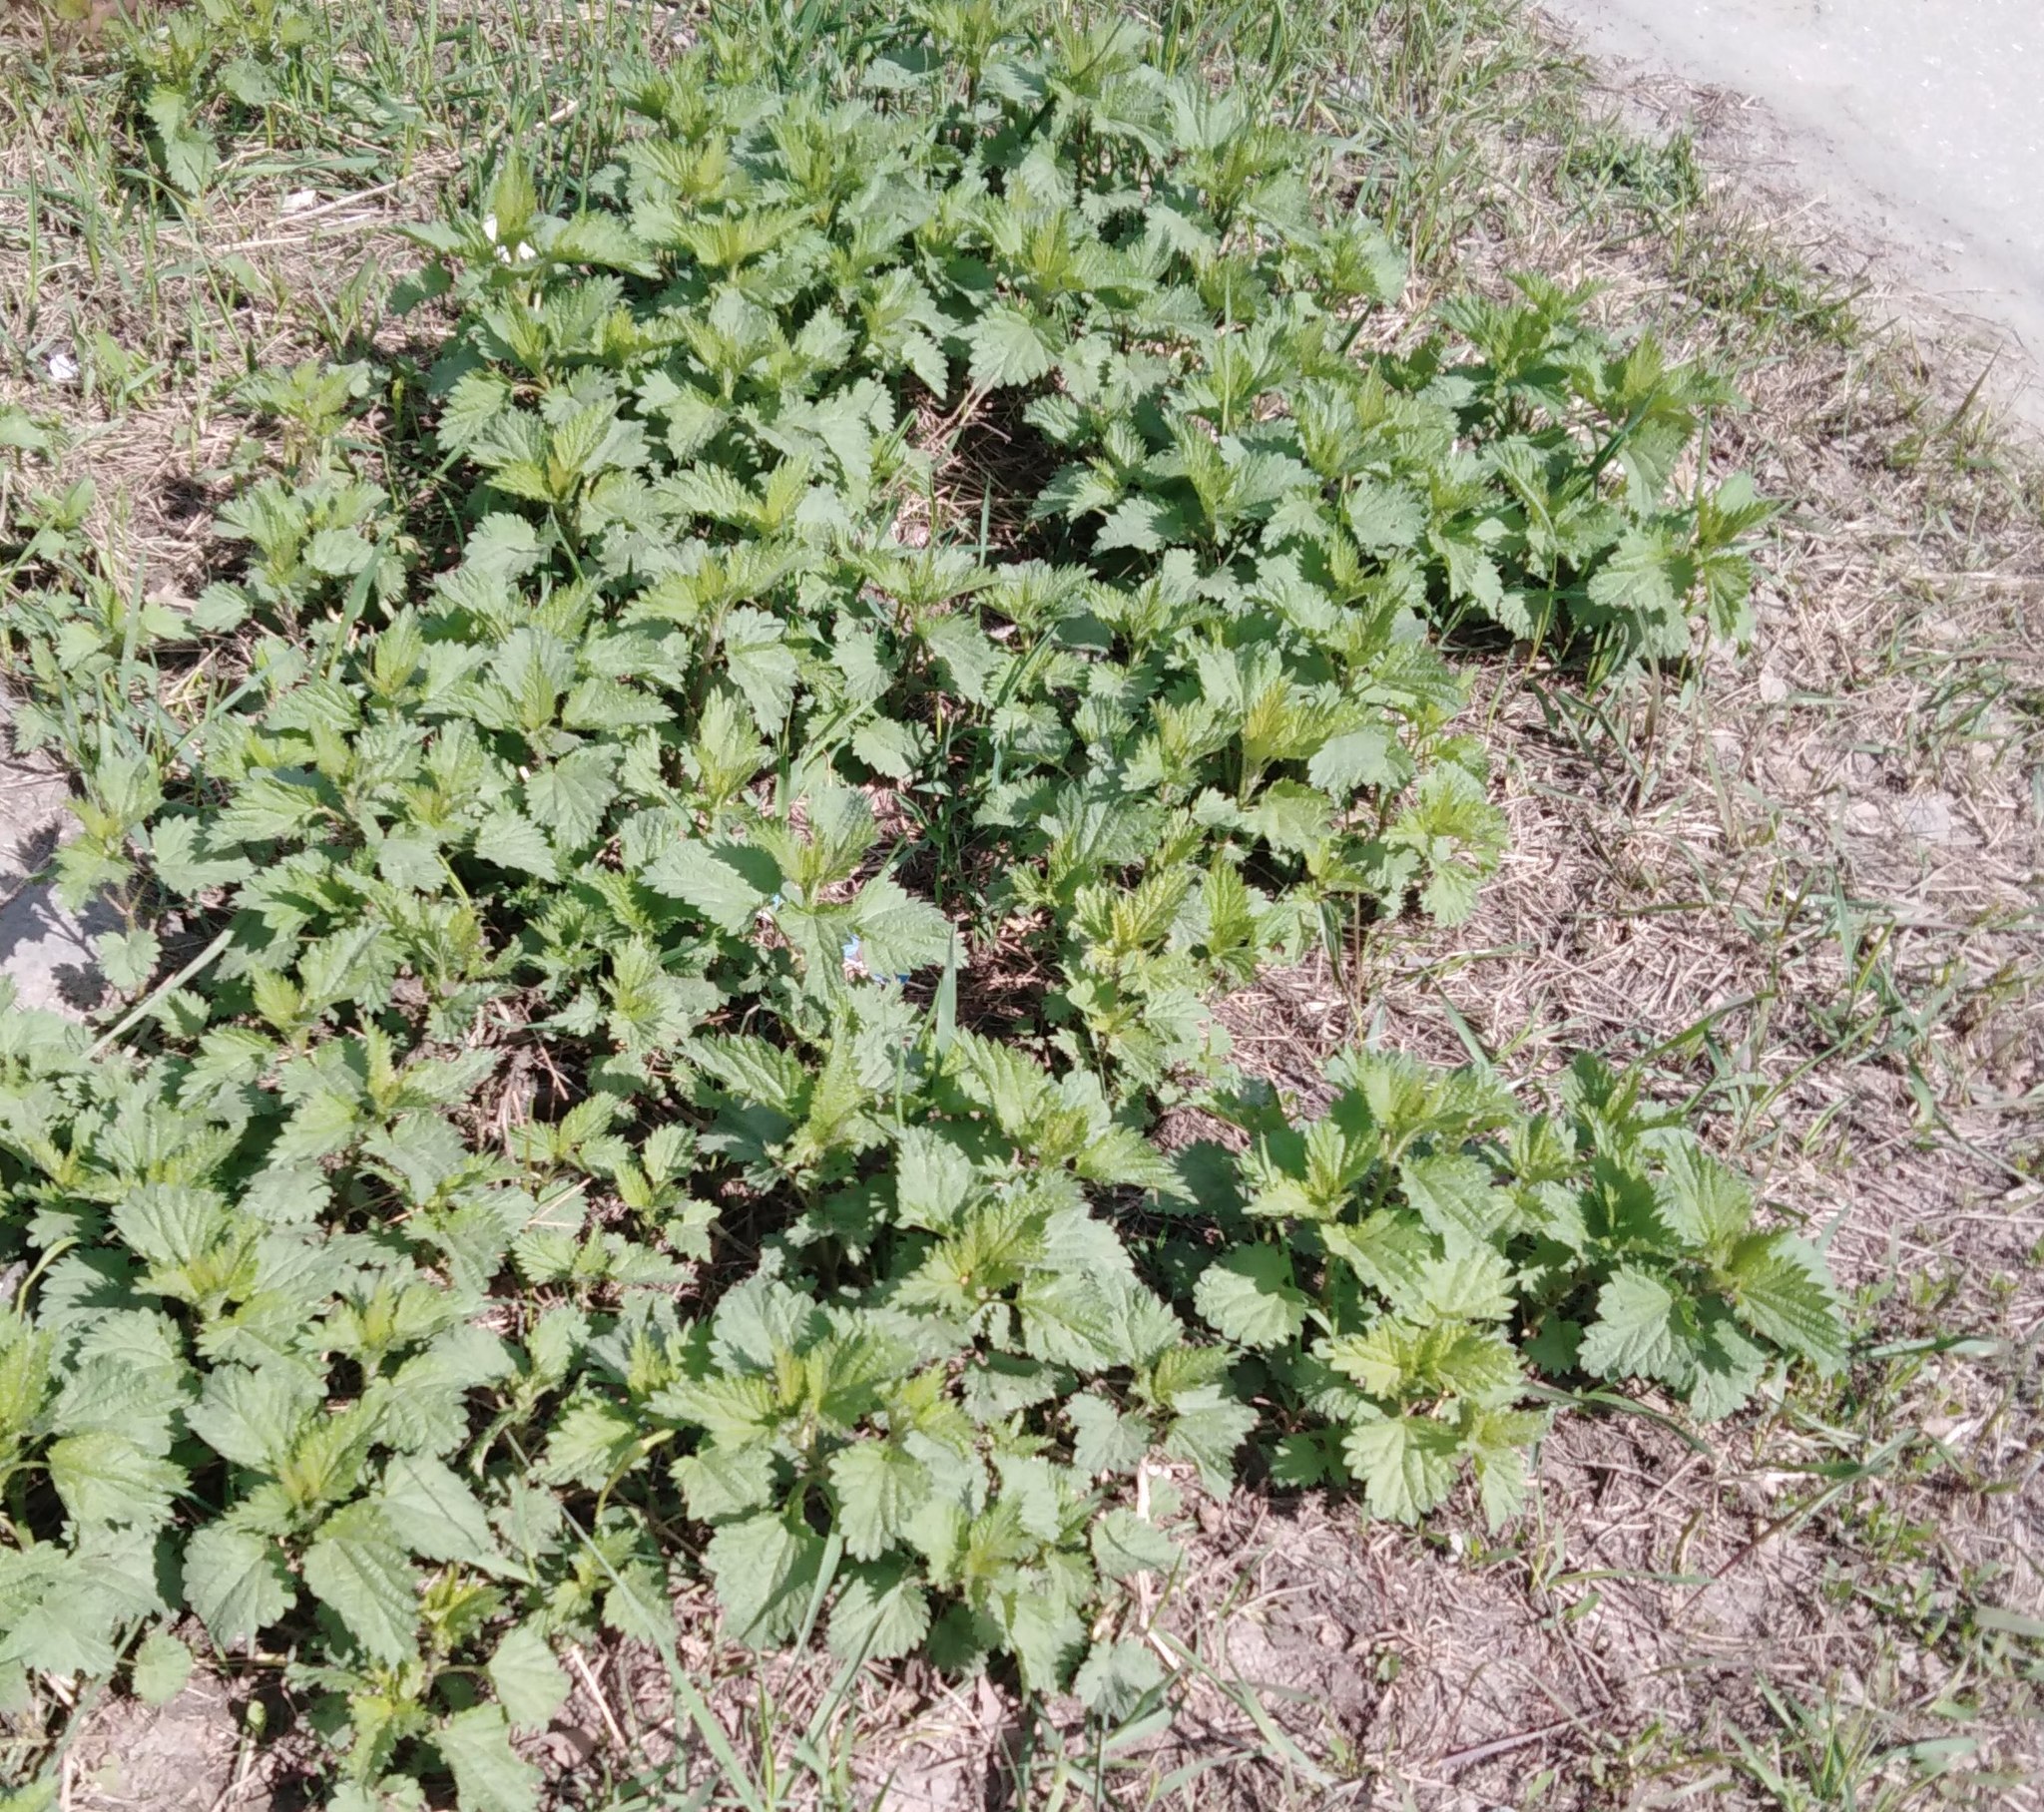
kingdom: Plantae
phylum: Tracheophyta
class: Magnoliopsida
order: Rosales
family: Urticaceae
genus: Urtica
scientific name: Urtica dioica
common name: Common nettle
